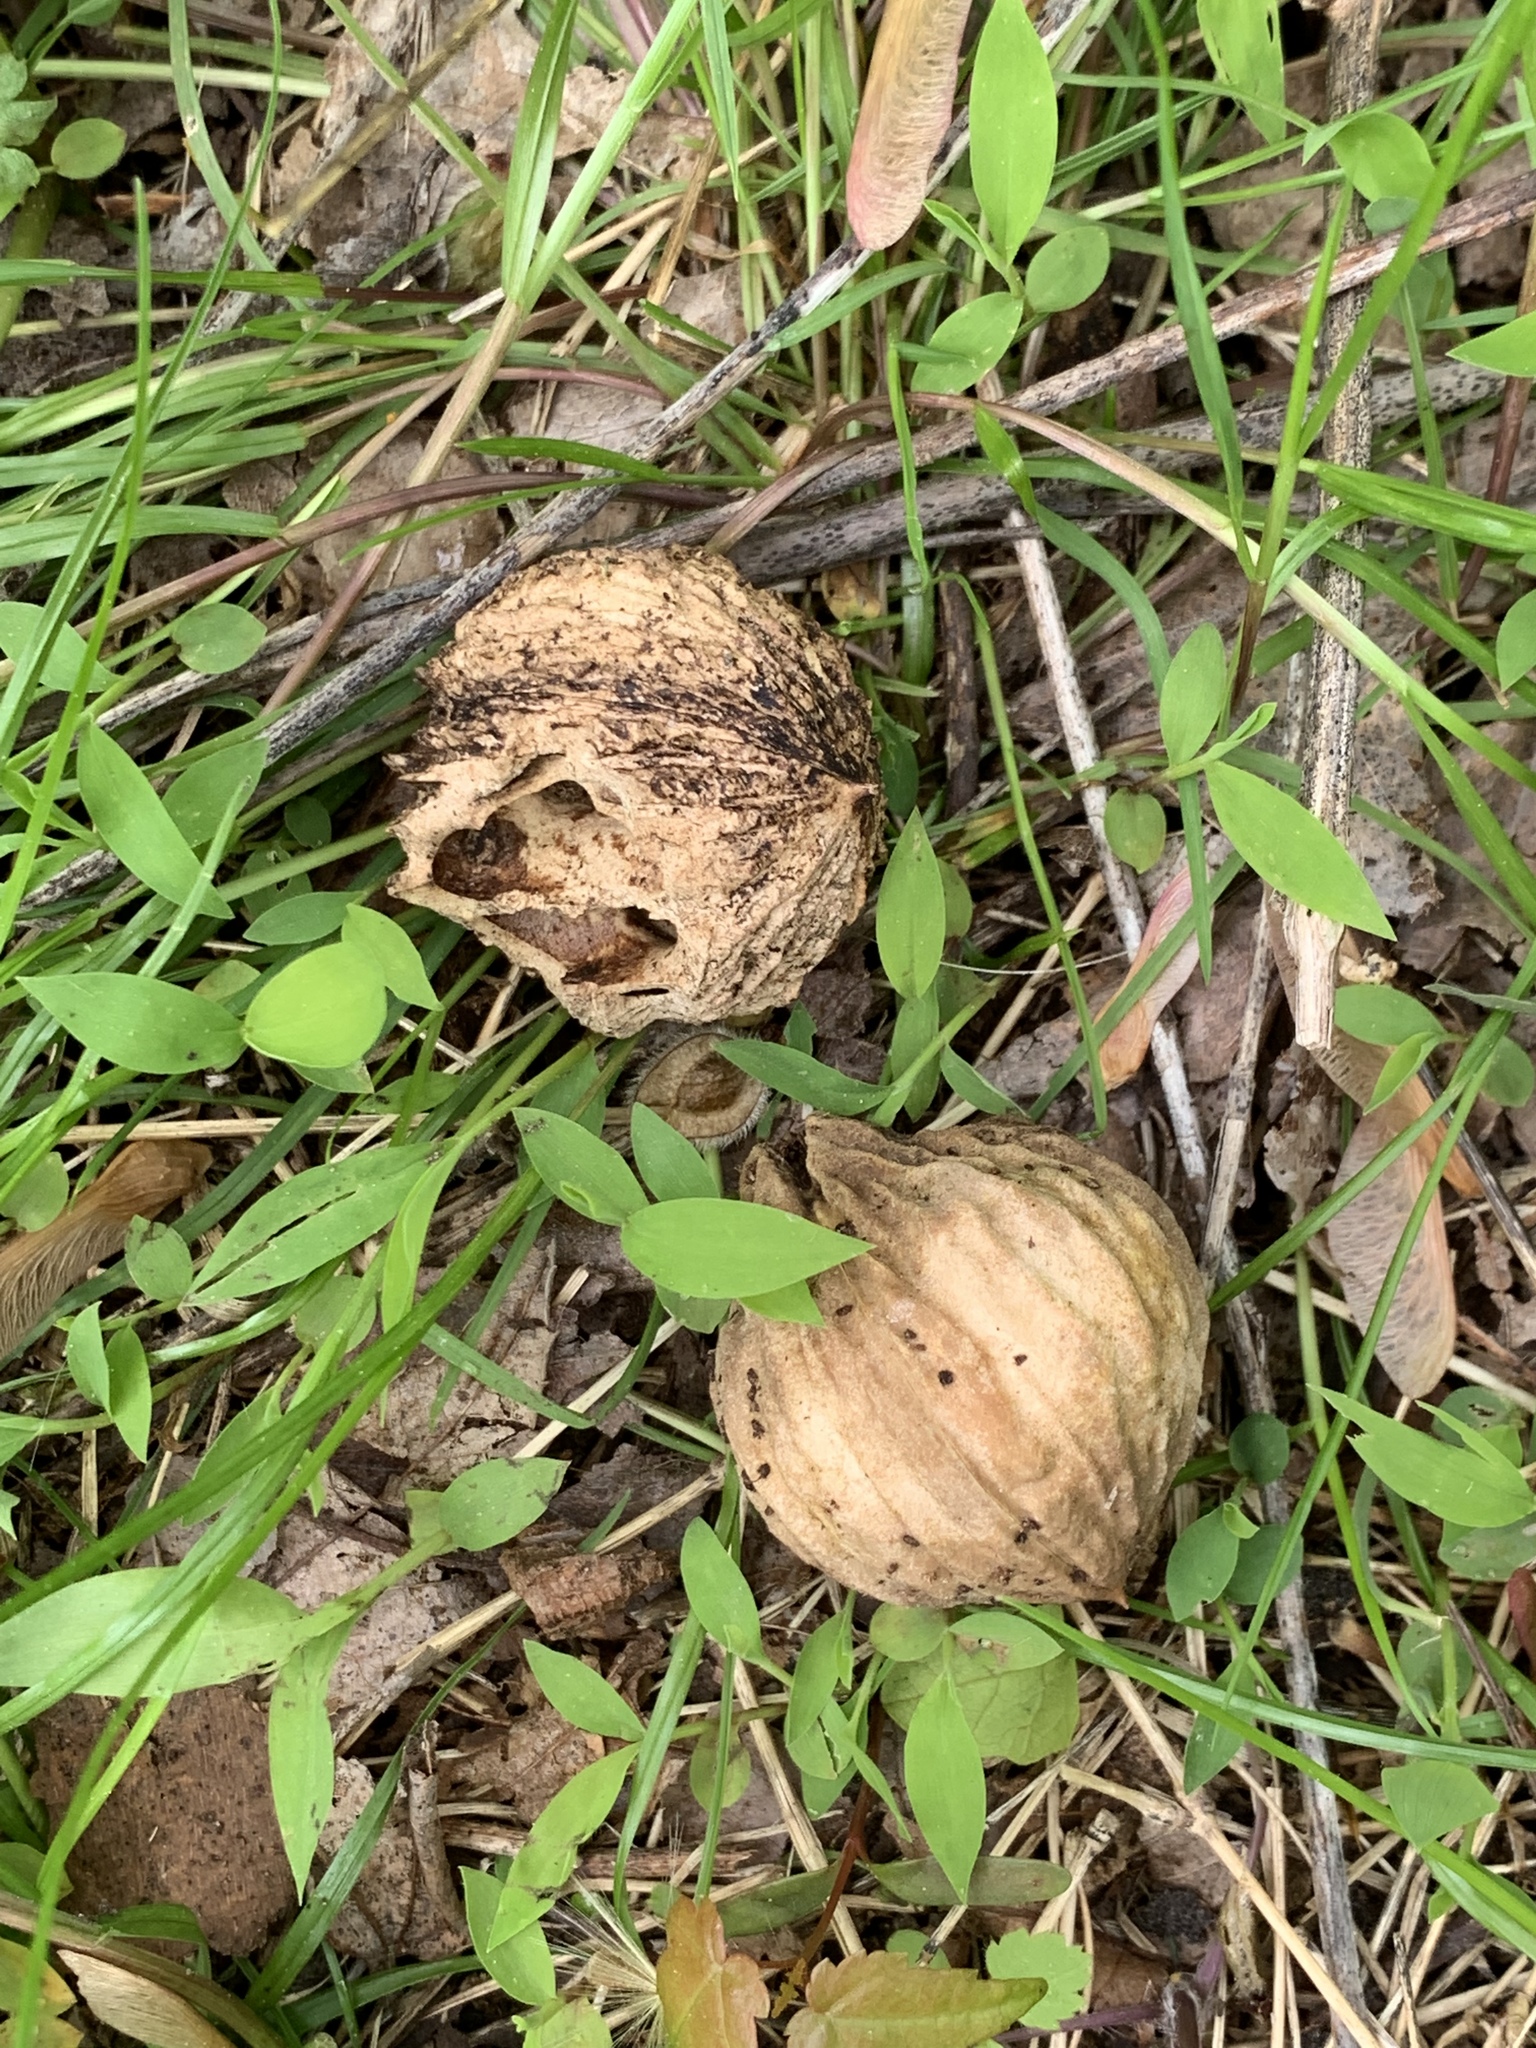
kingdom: Plantae
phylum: Tracheophyta
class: Magnoliopsida
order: Fagales
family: Juglandaceae
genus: Juglans
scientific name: Juglans nigra
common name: Black walnut
